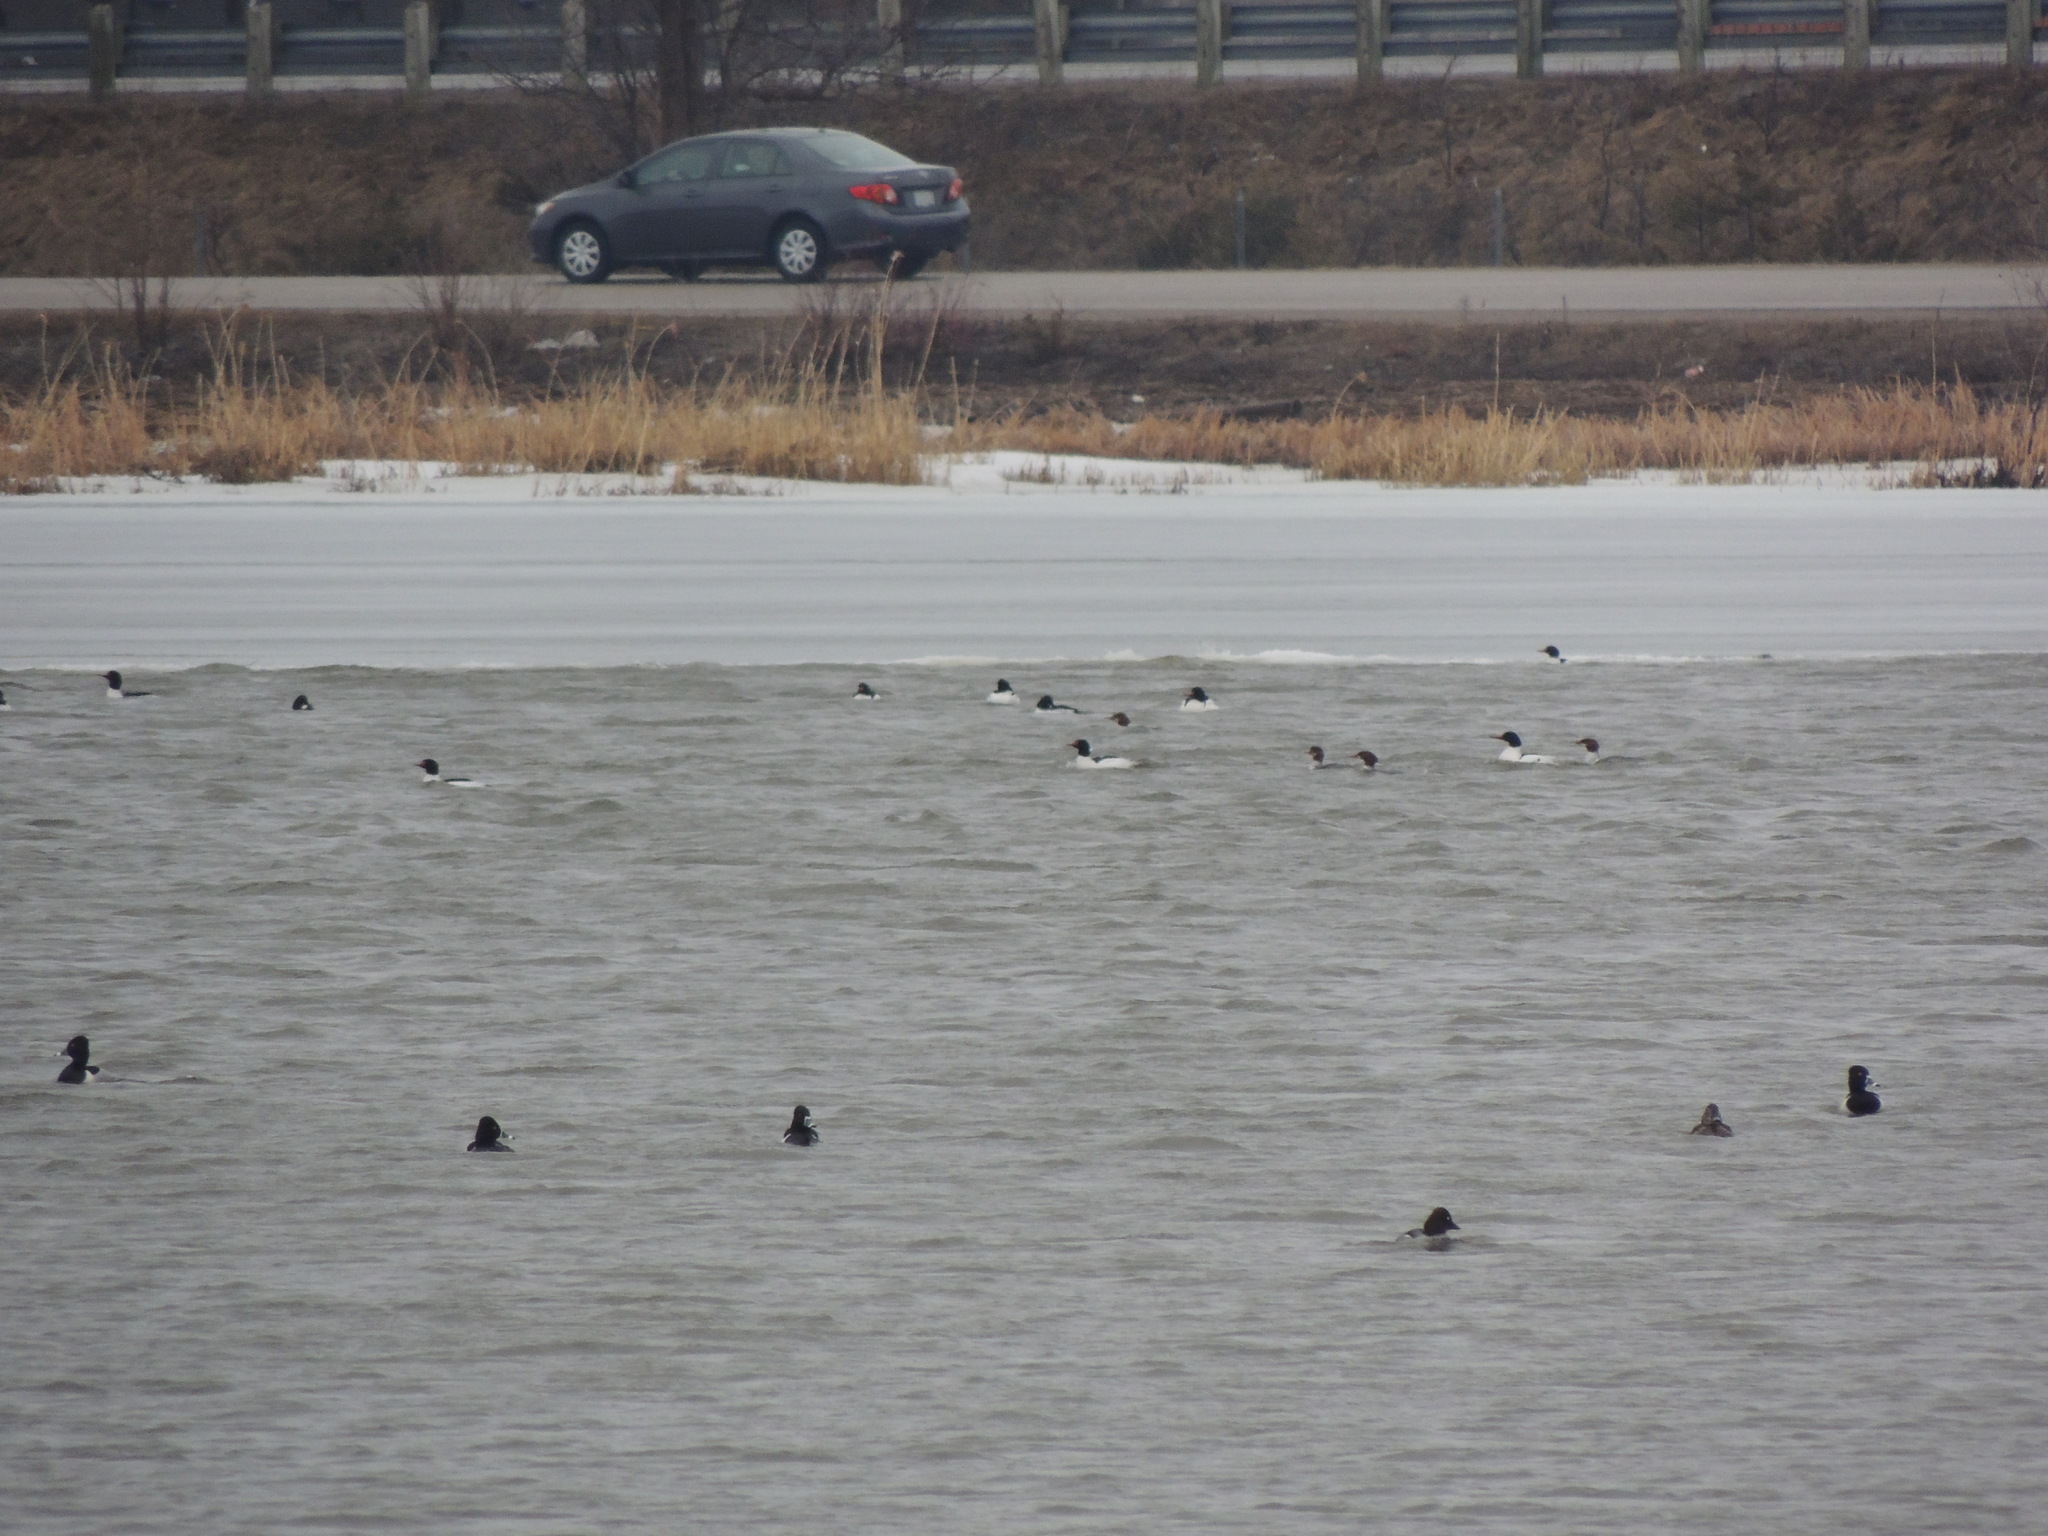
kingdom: Animalia
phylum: Chordata
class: Aves
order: Anseriformes
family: Anatidae
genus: Mergus
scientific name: Mergus merganser
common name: Common merganser
